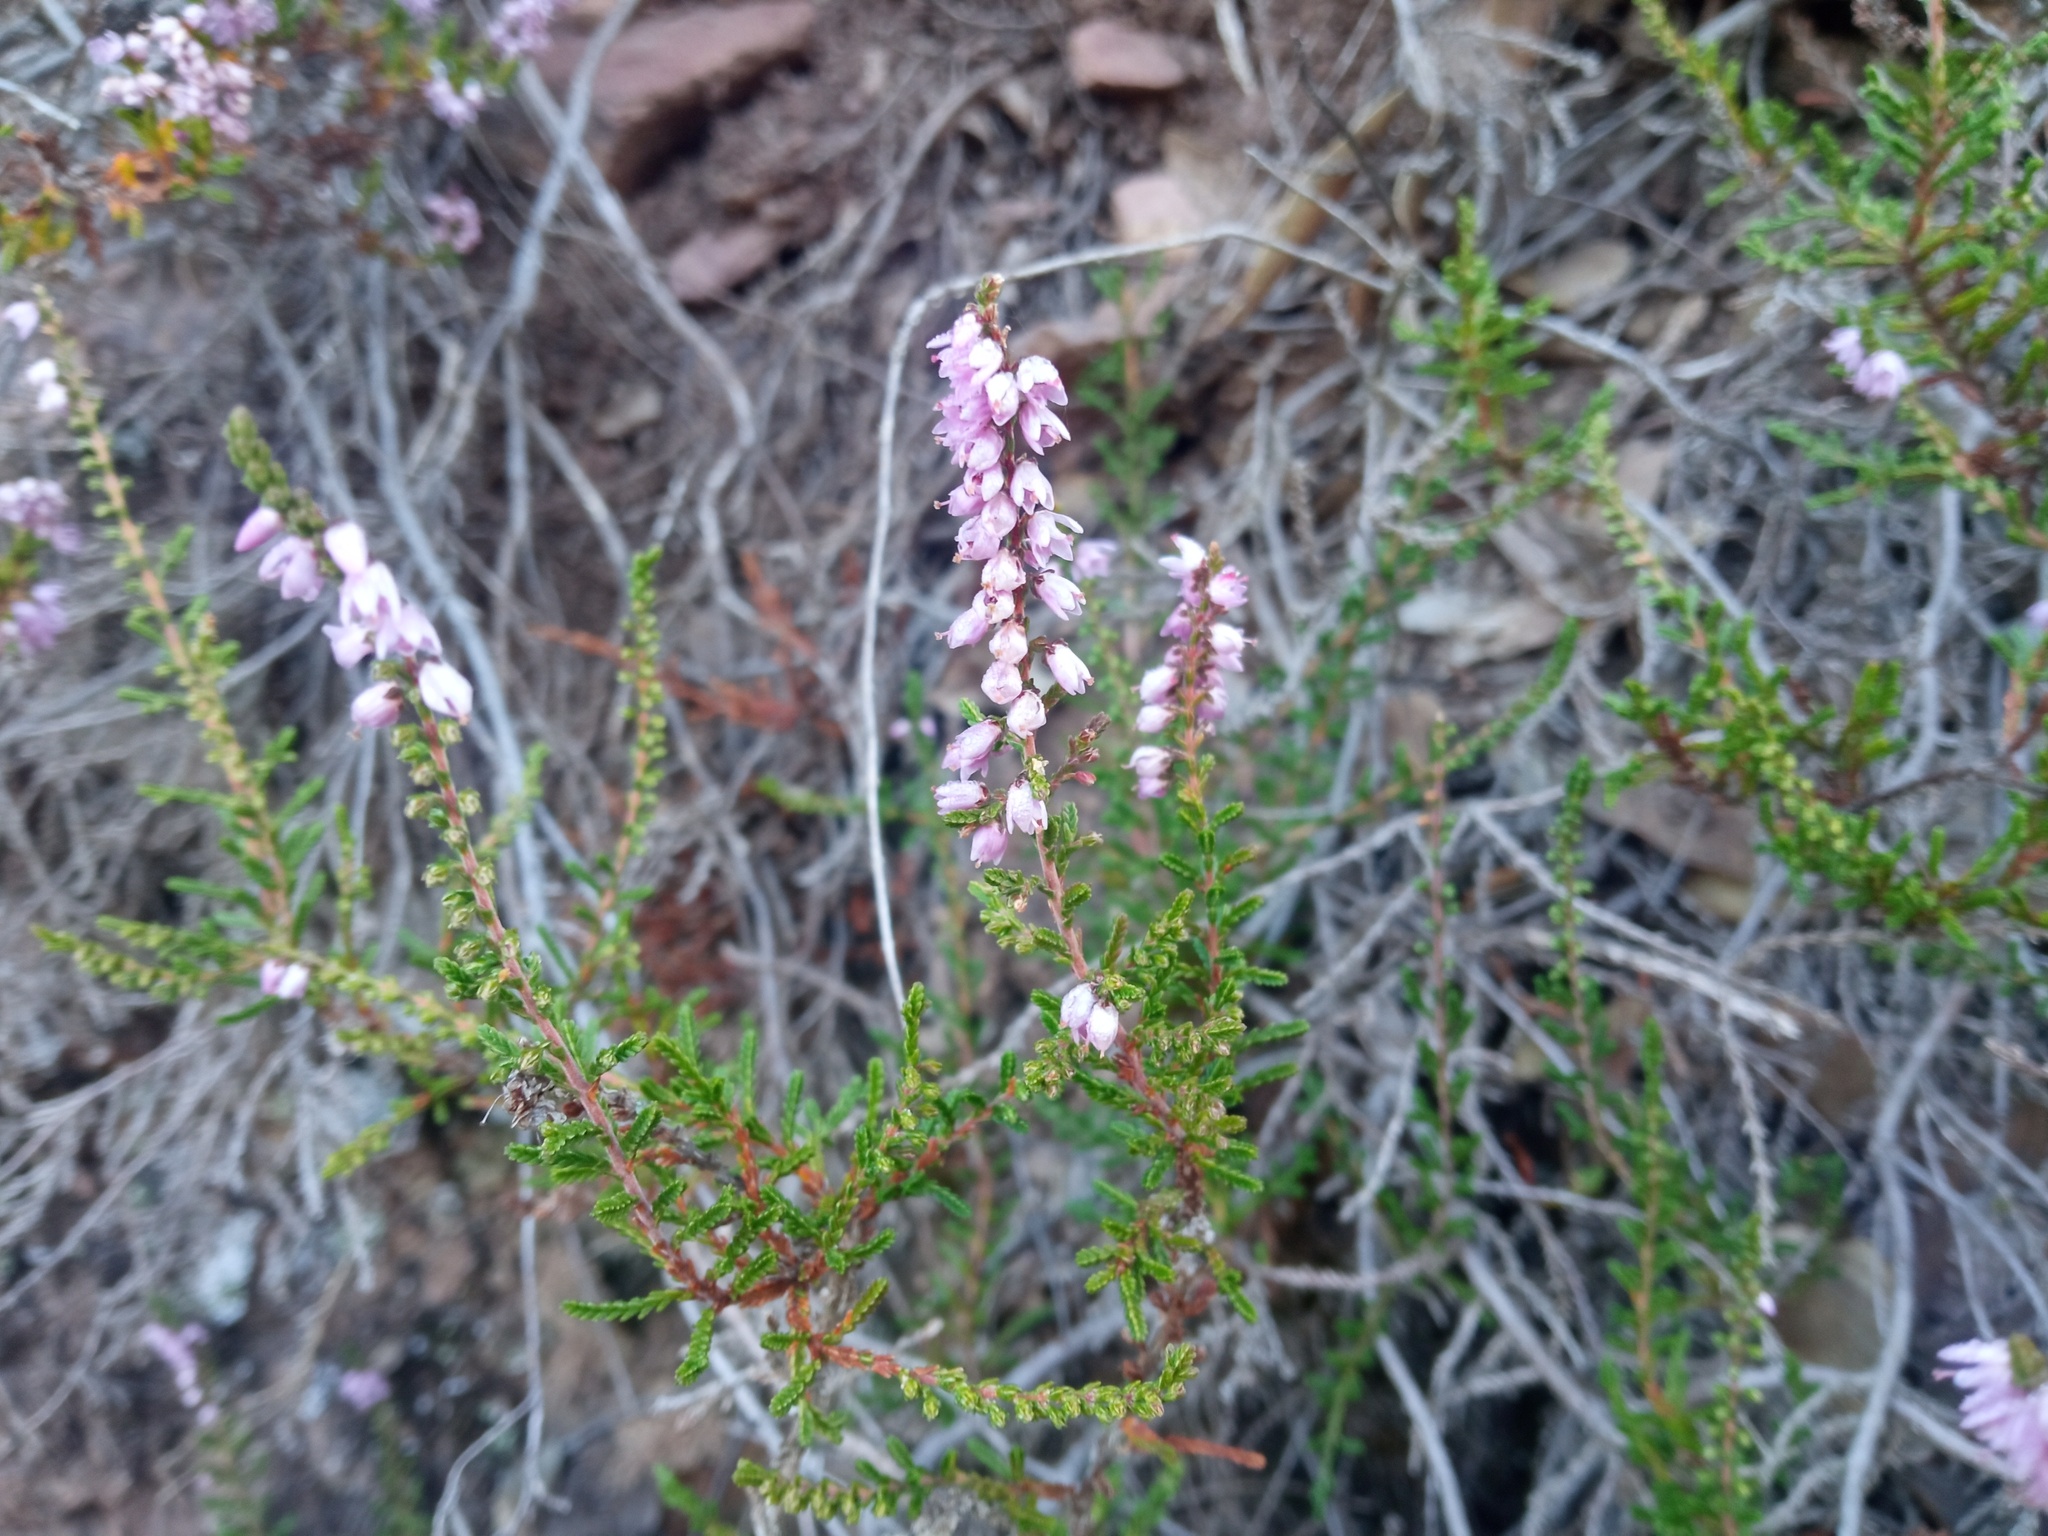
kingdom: Plantae
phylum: Tracheophyta
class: Magnoliopsida
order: Ericales
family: Ericaceae
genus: Calluna
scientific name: Calluna vulgaris
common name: Heather
